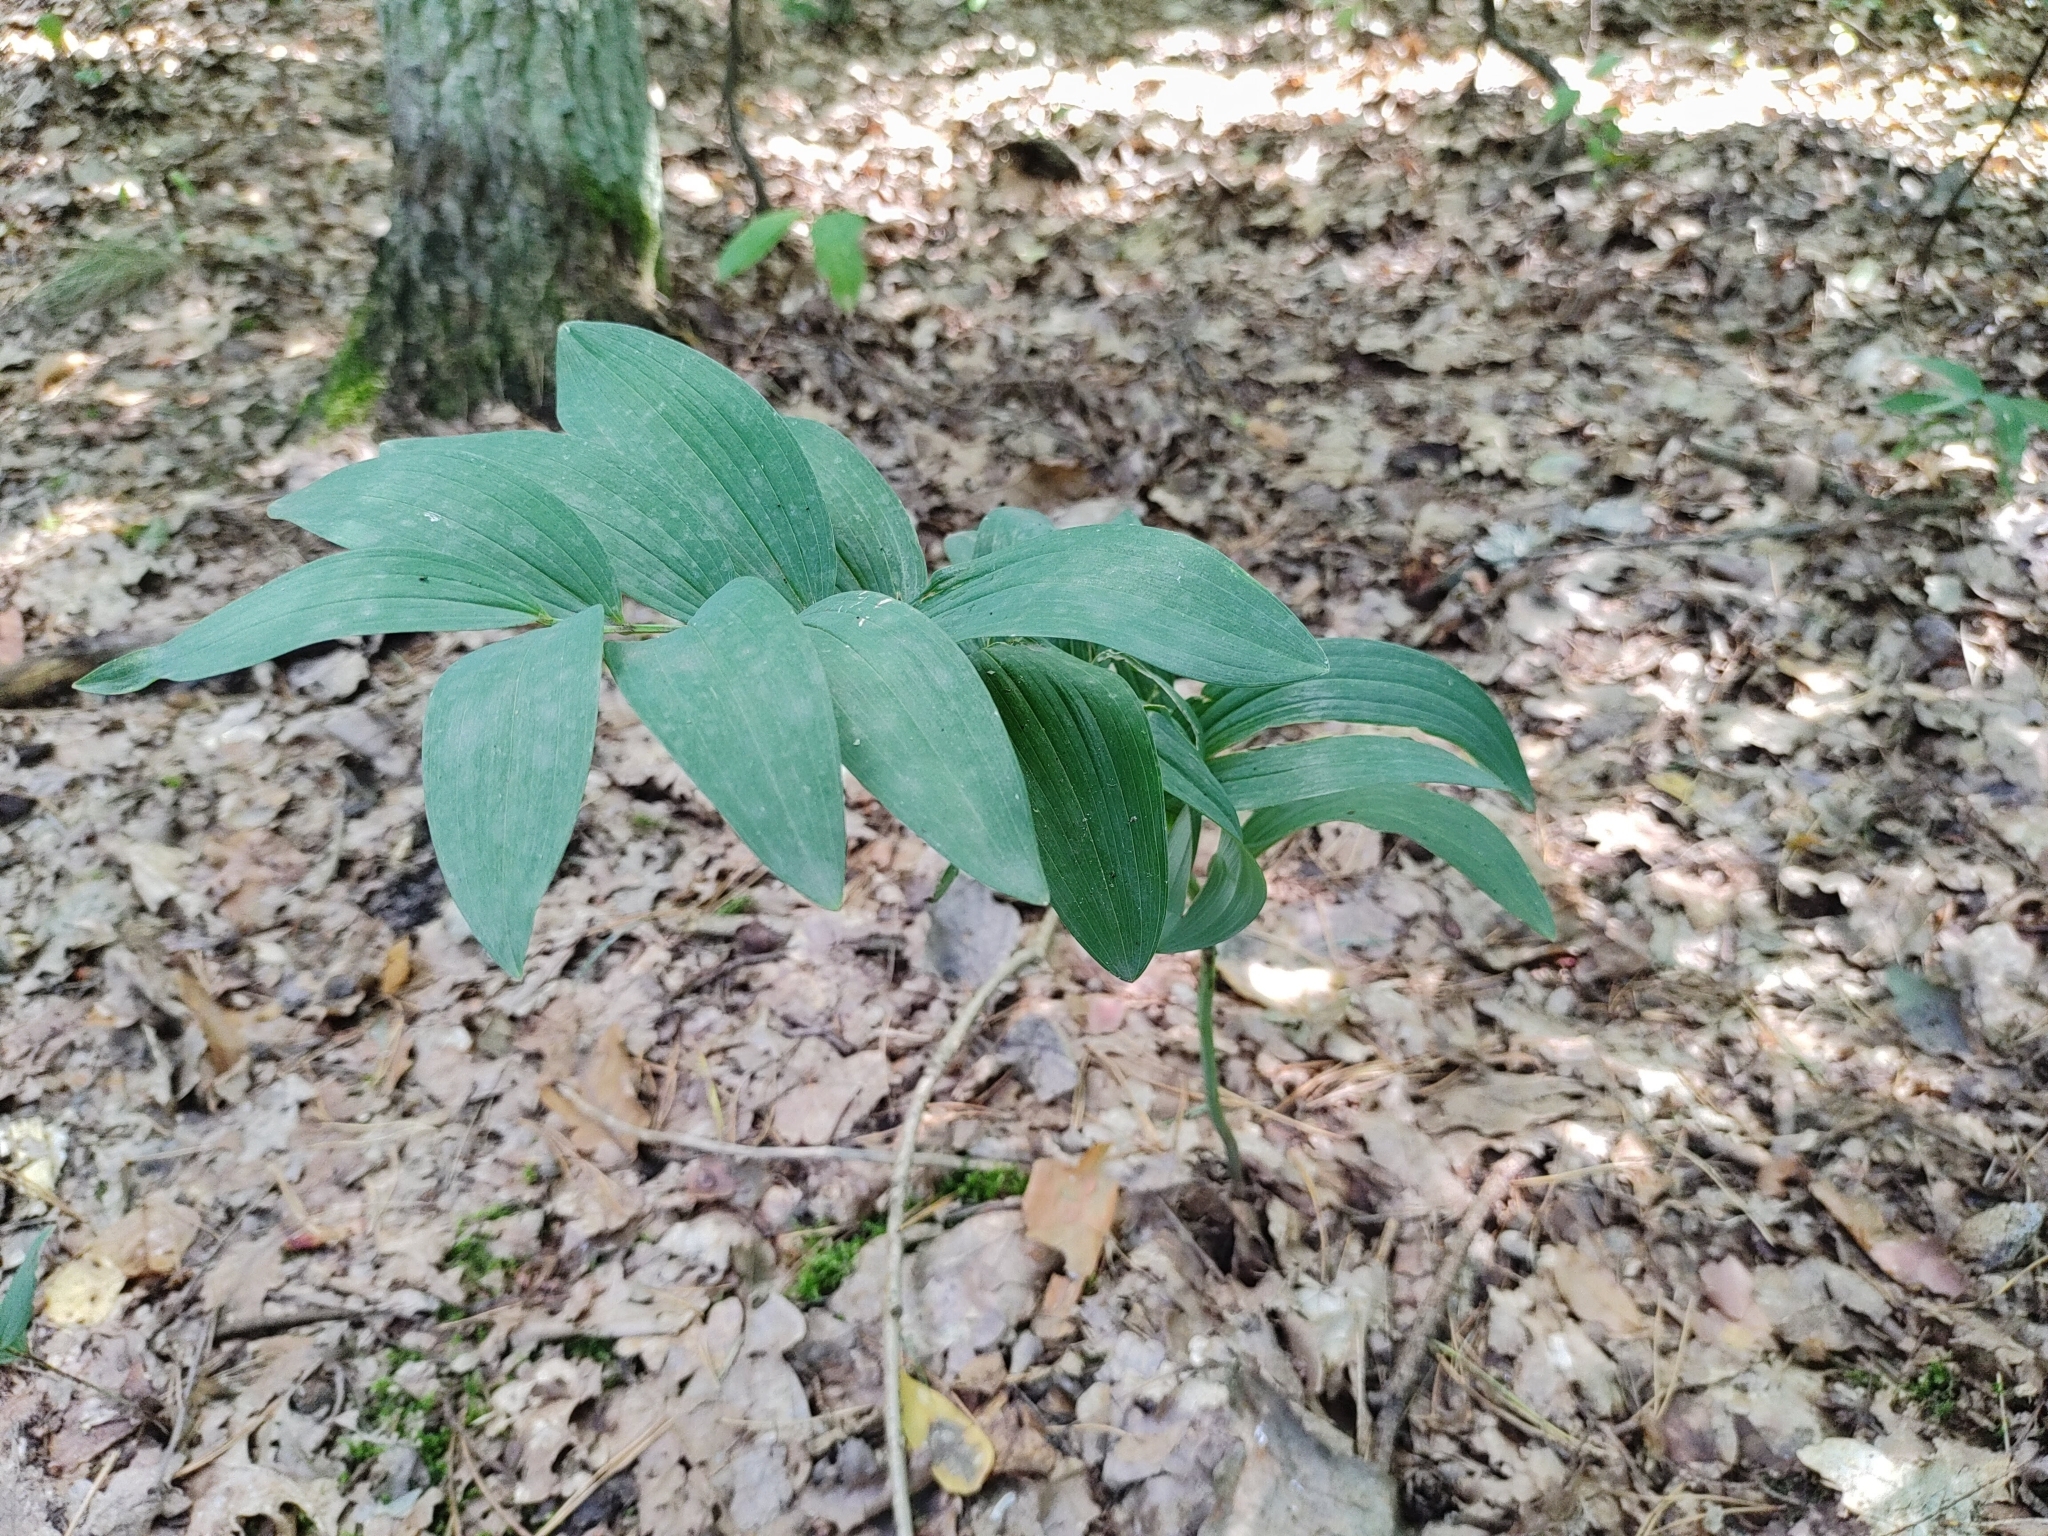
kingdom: Plantae
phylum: Tracheophyta
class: Liliopsida
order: Asparagales
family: Asparagaceae
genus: Polygonatum
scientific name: Polygonatum odoratum
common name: Angular solomon's-seal
